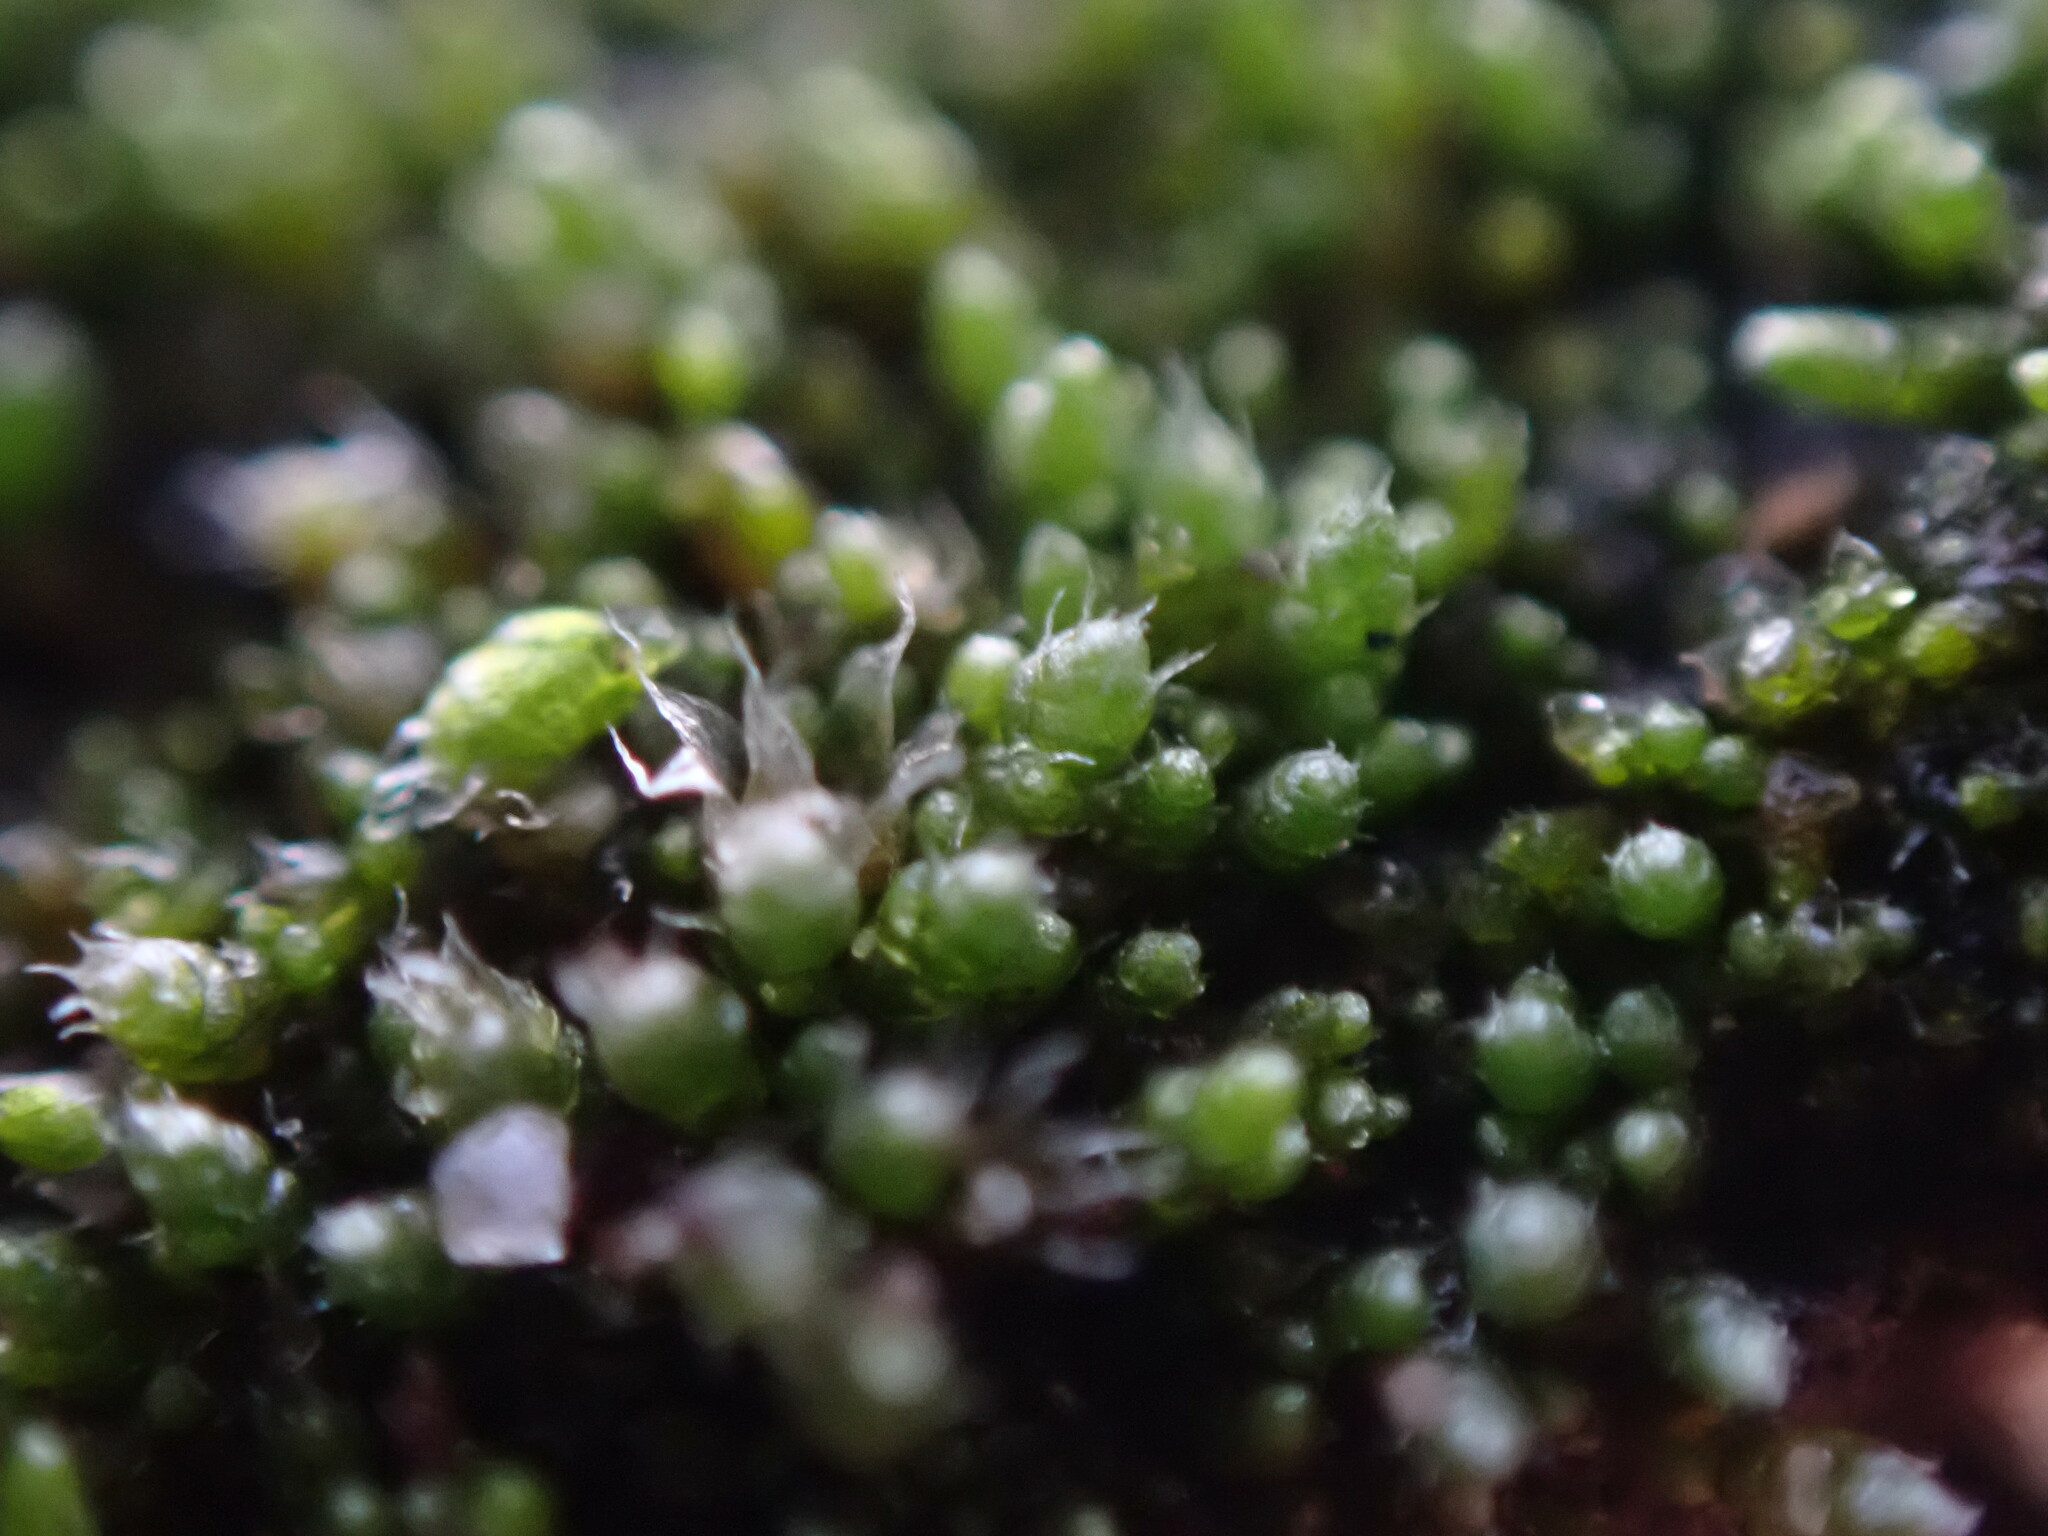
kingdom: Plantae
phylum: Bryophyta
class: Bryopsida
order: Bryales
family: Bryaceae
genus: Bryum
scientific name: Bryum argenteum
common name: Silver-moss
